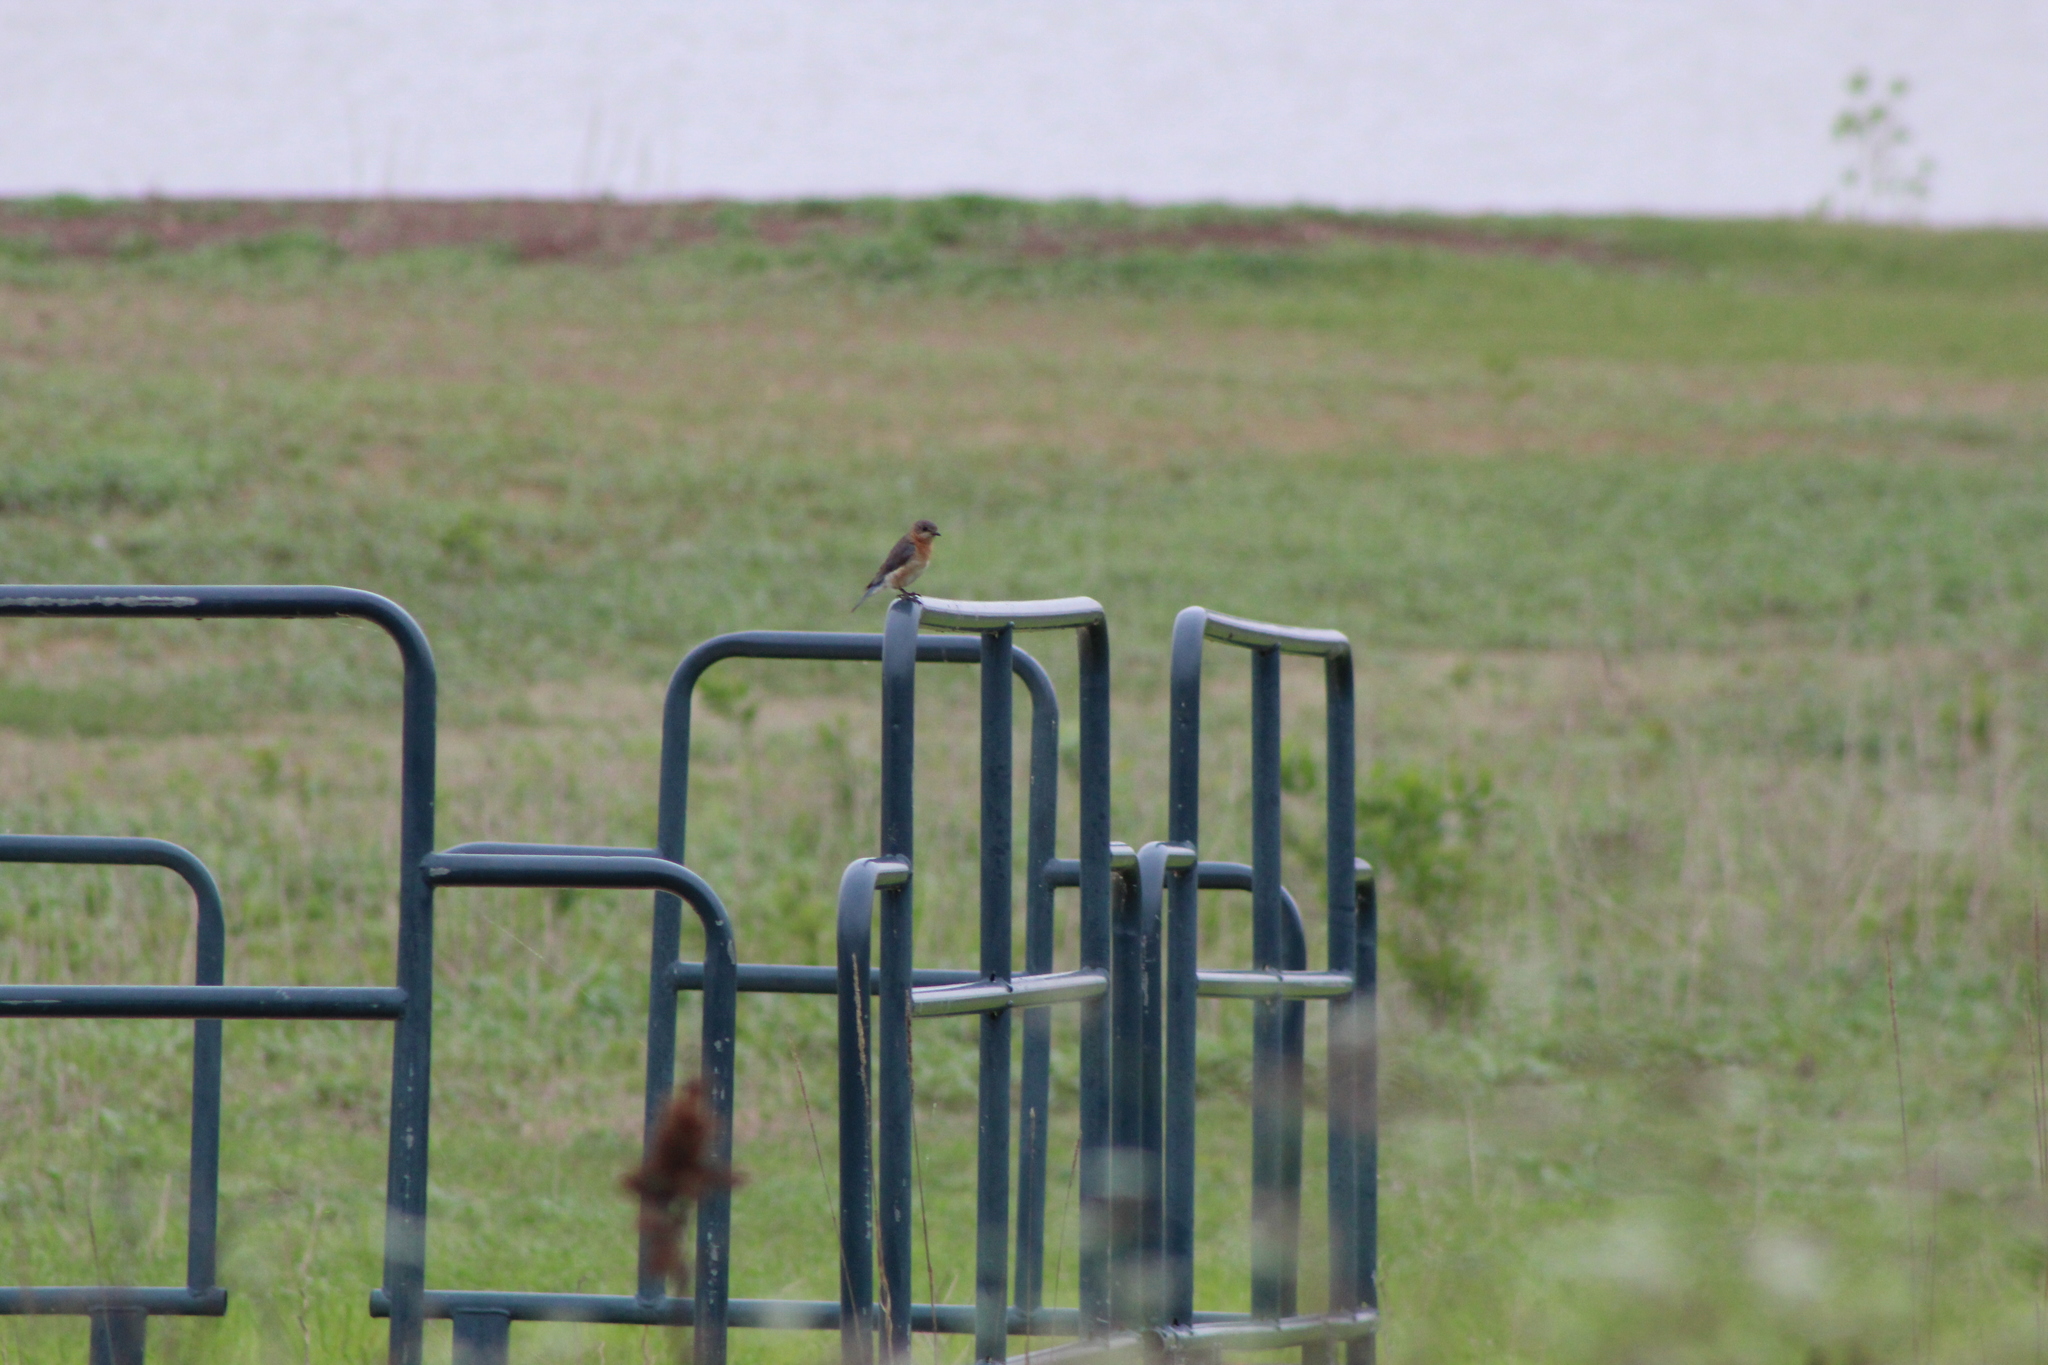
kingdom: Animalia
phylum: Chordata
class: Aves
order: Passeriformes
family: Turdidae
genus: Sialia
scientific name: Sialia sialis
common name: Eastern bluebird
